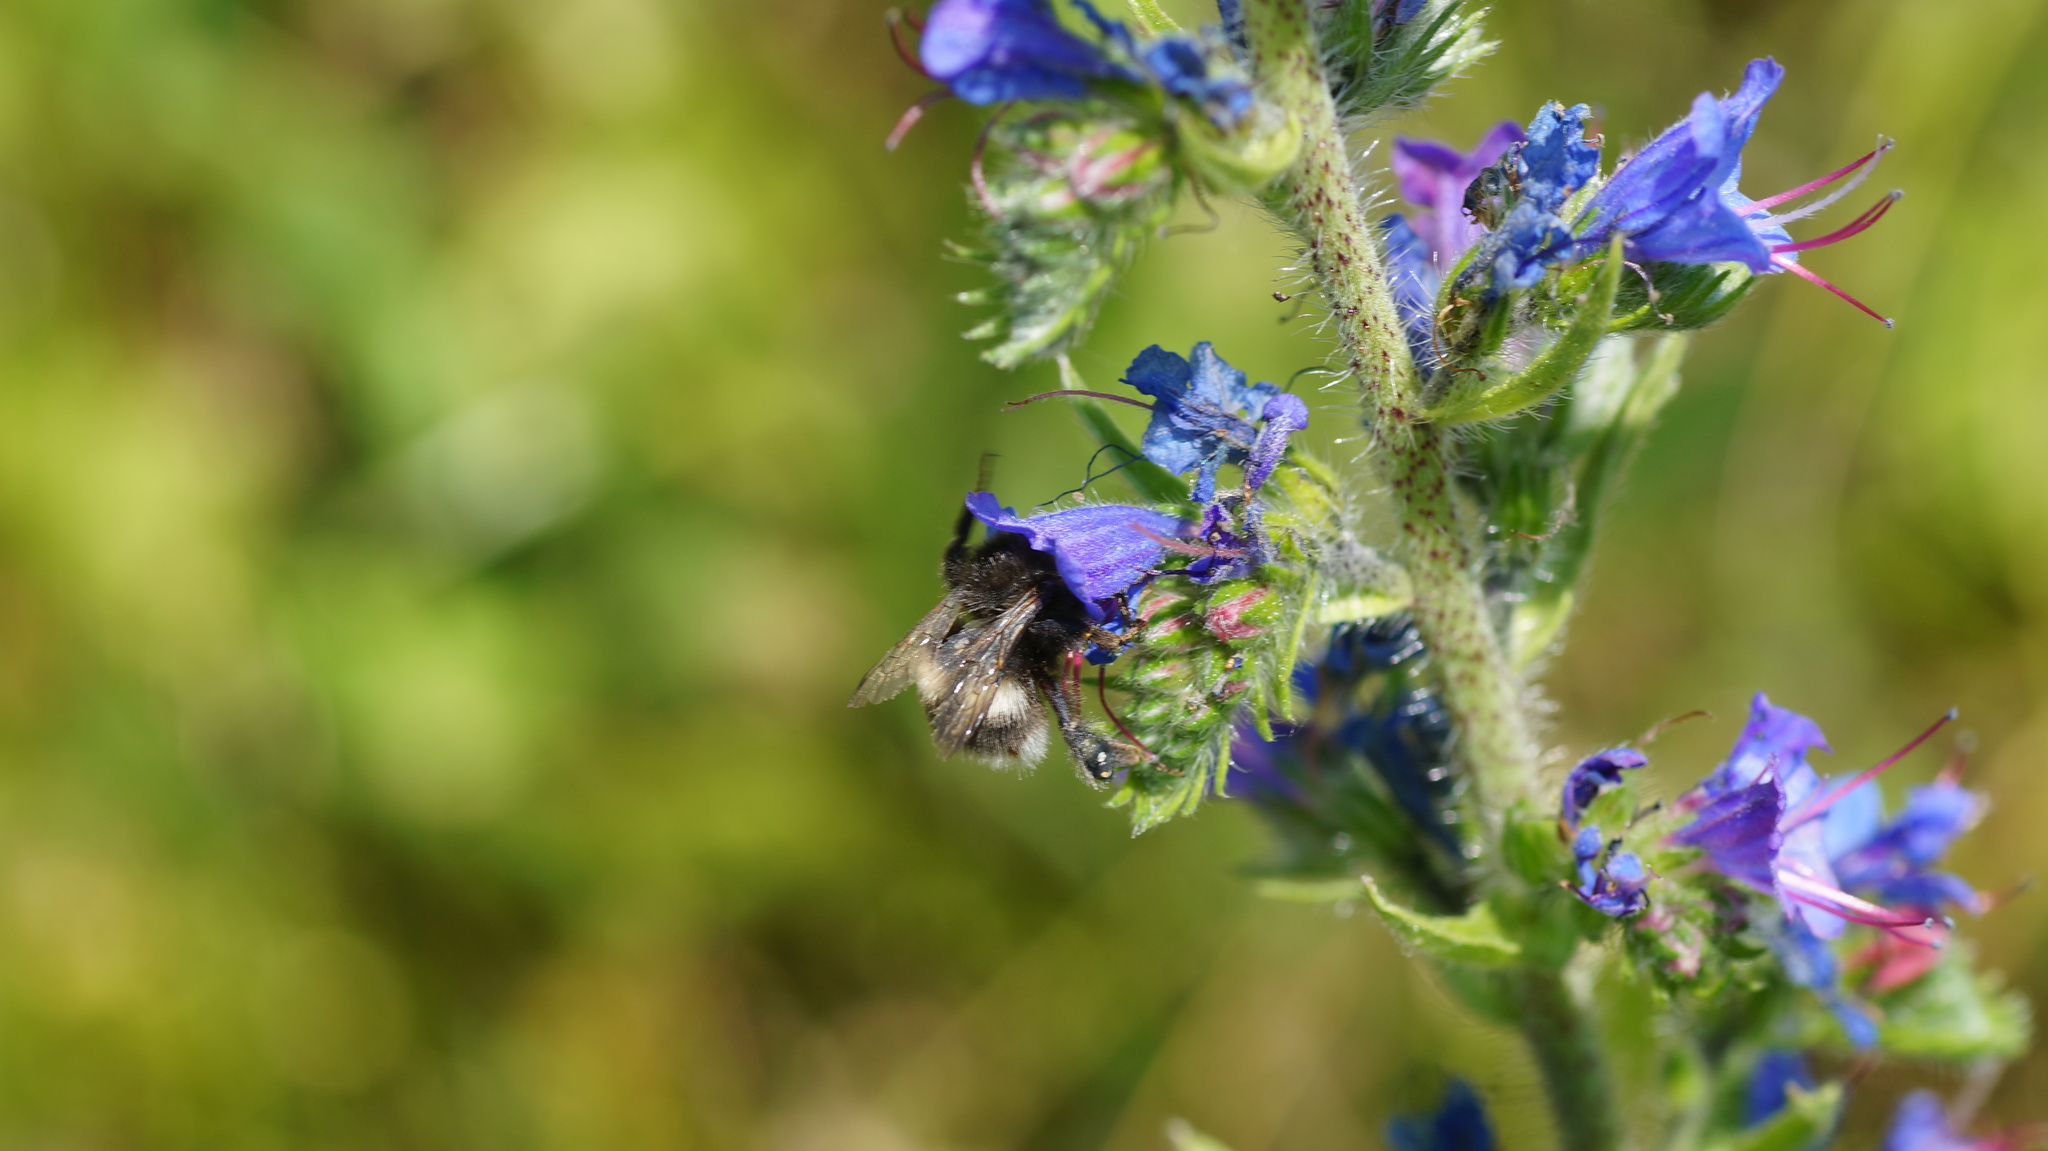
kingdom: Animalia
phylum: Arthropoda
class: Insecta
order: Hymenoptera
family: Apidae
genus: Bombus
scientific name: Bombus
